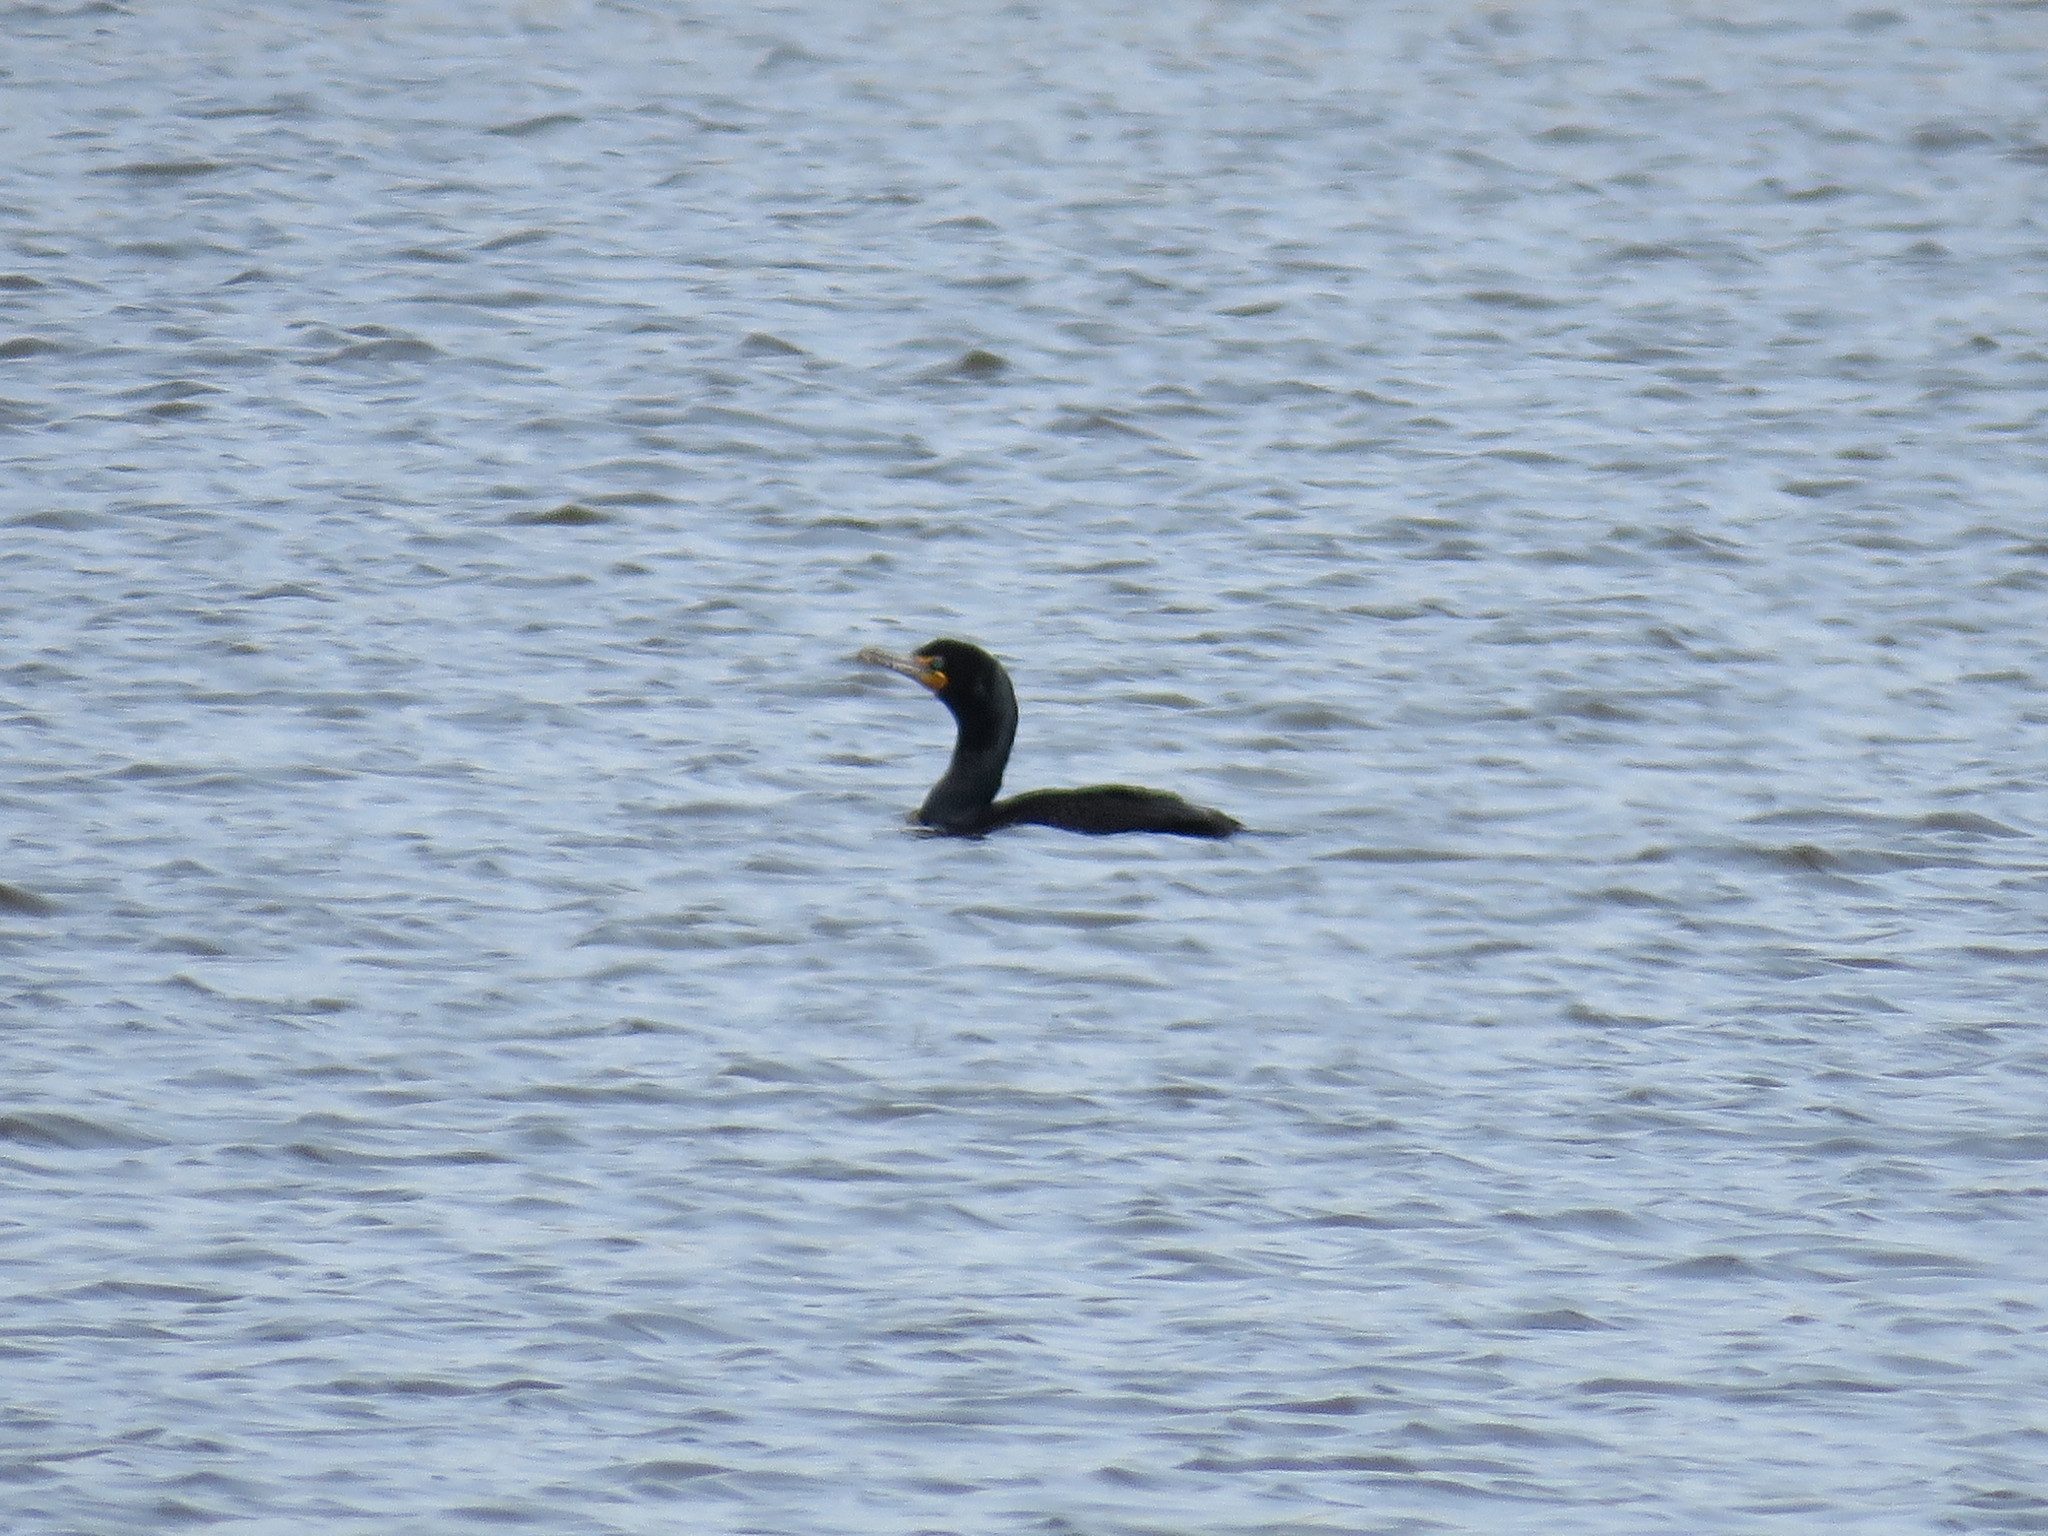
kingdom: Animalia
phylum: Chordata
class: Aves
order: Suliformes
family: Phalacrocoracidae
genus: Phalacrocorax
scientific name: Phalacrocorax auritus
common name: Double-crested cormorant
